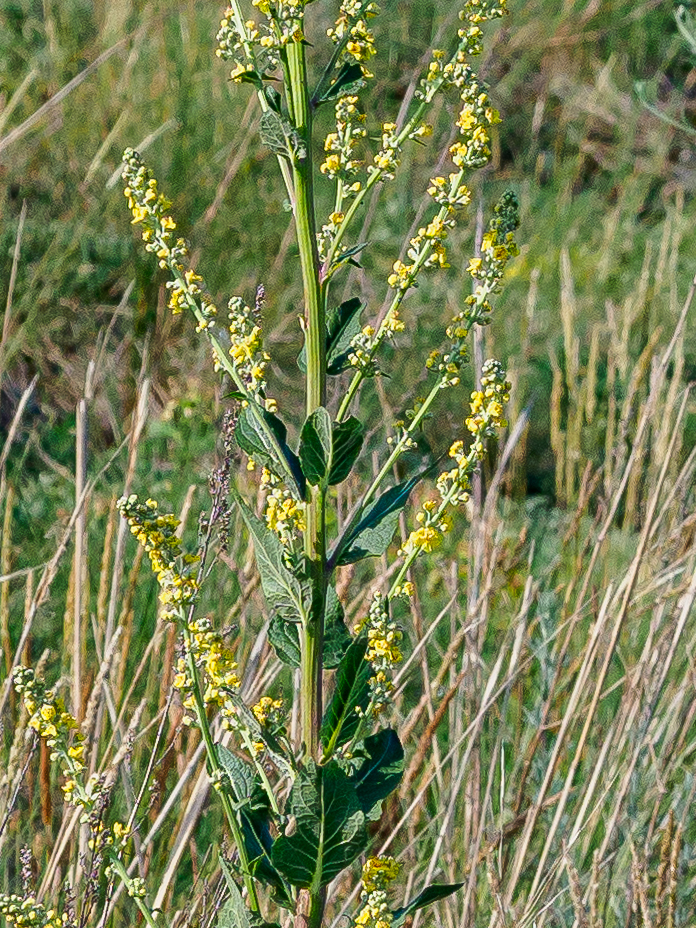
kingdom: Plantae
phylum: Tracheophyta
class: Magnoliopsida
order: Lamiales
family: Scrophulariaceae
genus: Verbascum
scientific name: Verbascum lychnitis
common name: White mullein
